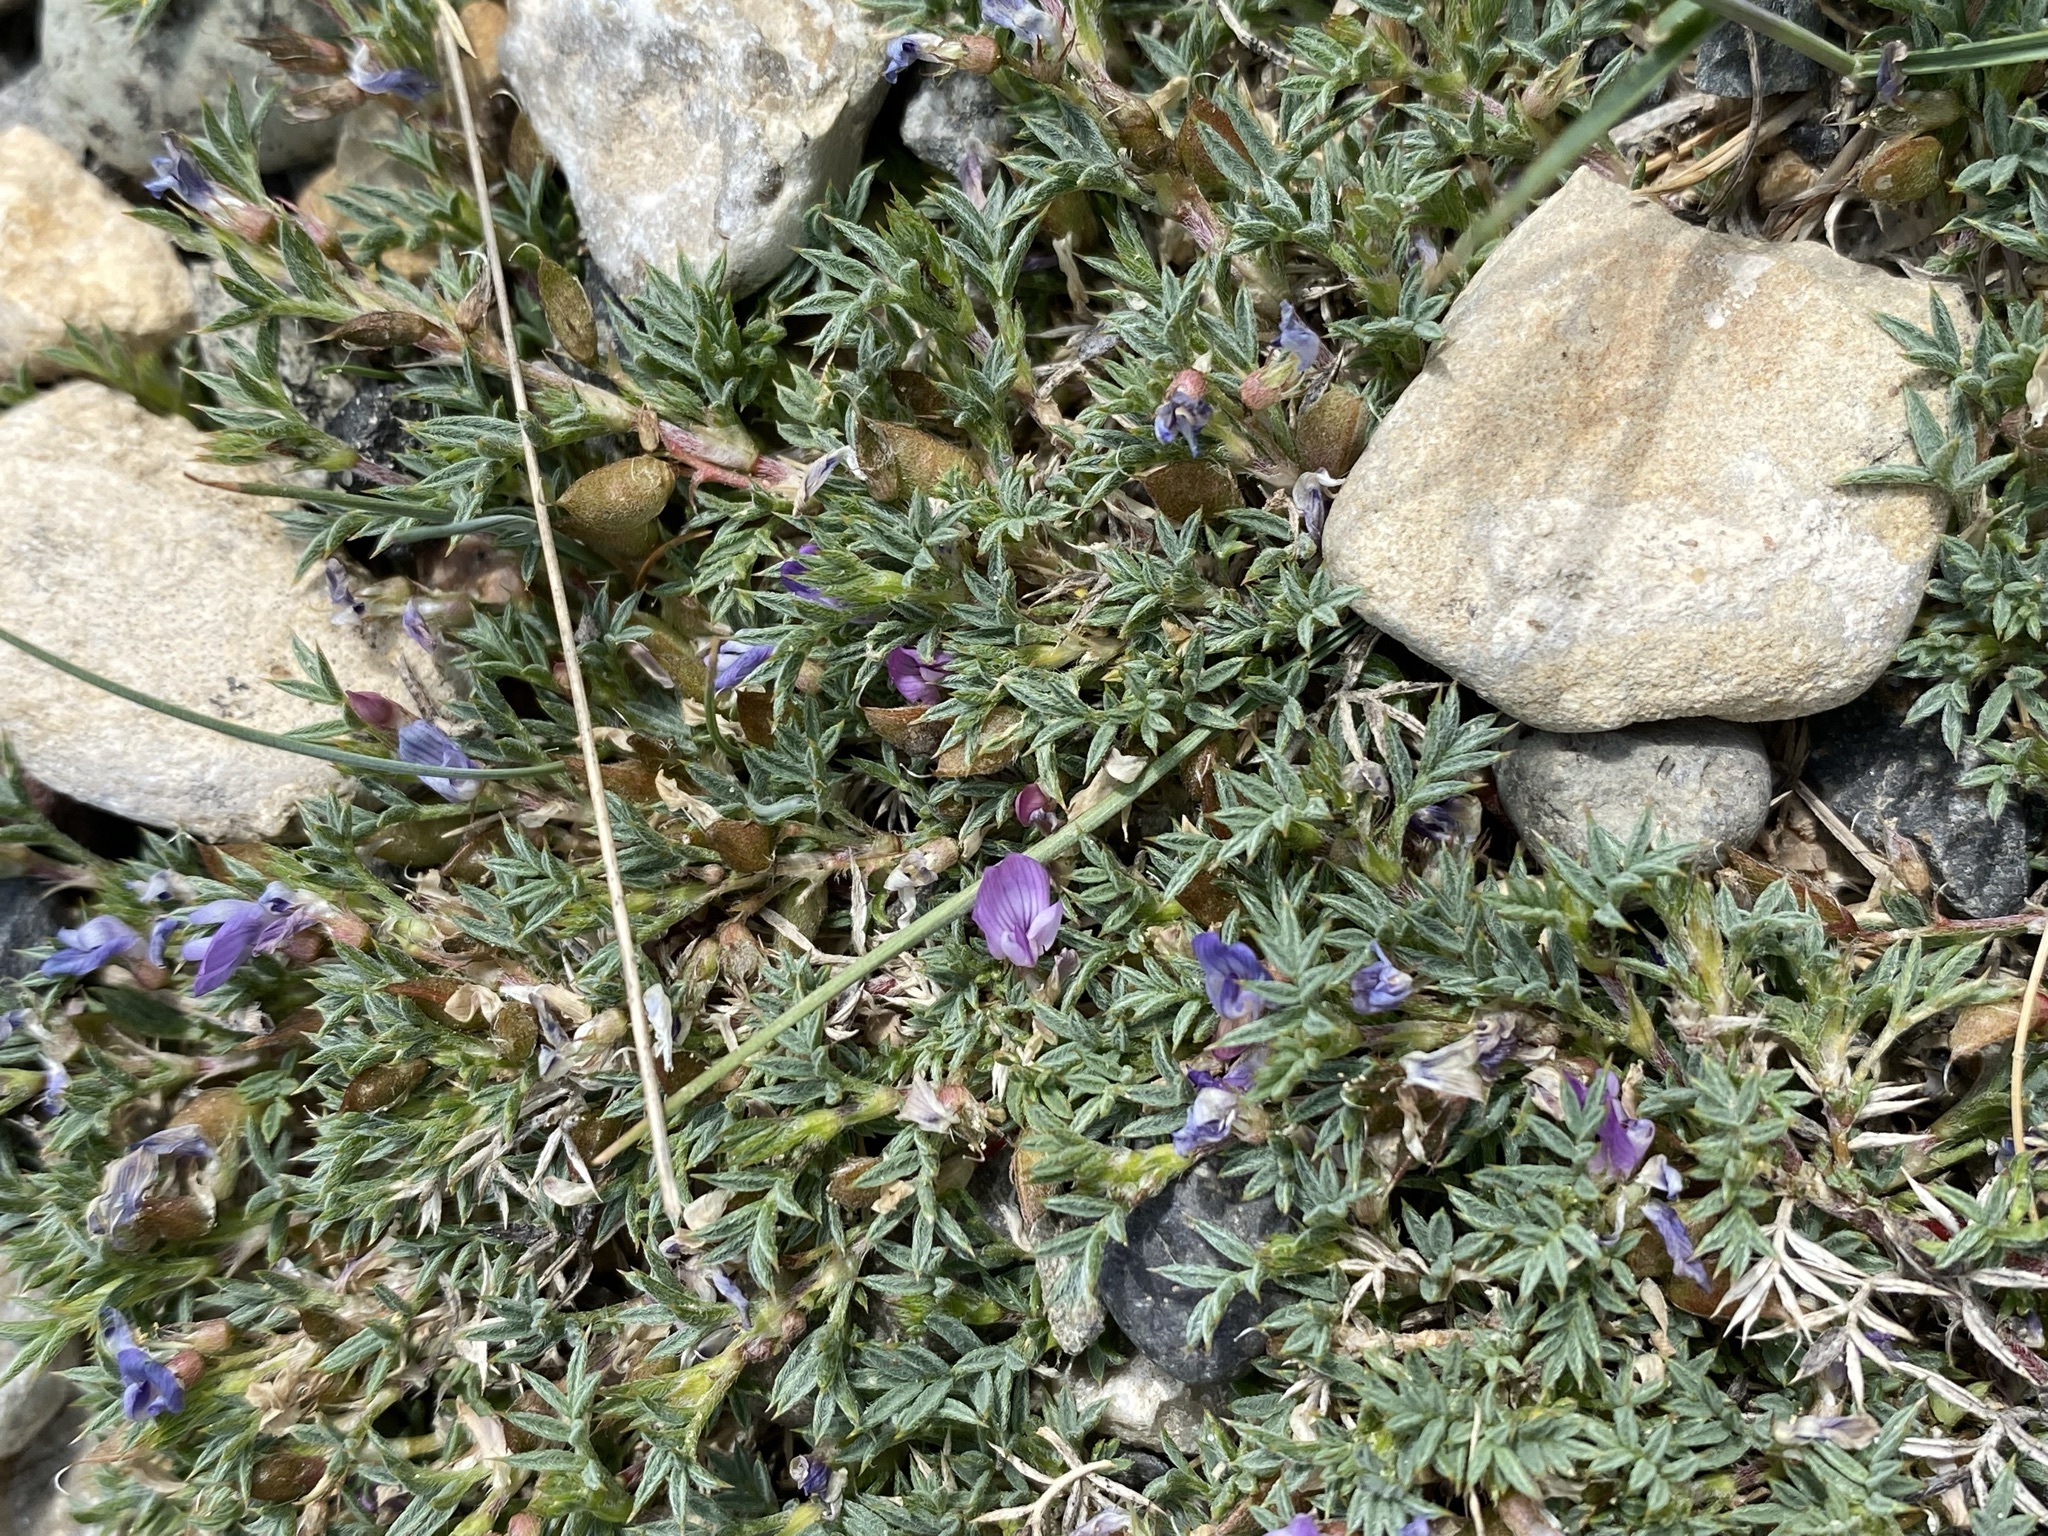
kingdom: Plantae
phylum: Tracheophyta
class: Magnoliopsida
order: Fabales
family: Fabaceae
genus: Astragalus
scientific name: Astragalus kentrophyta
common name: Prickly milk-vetch
